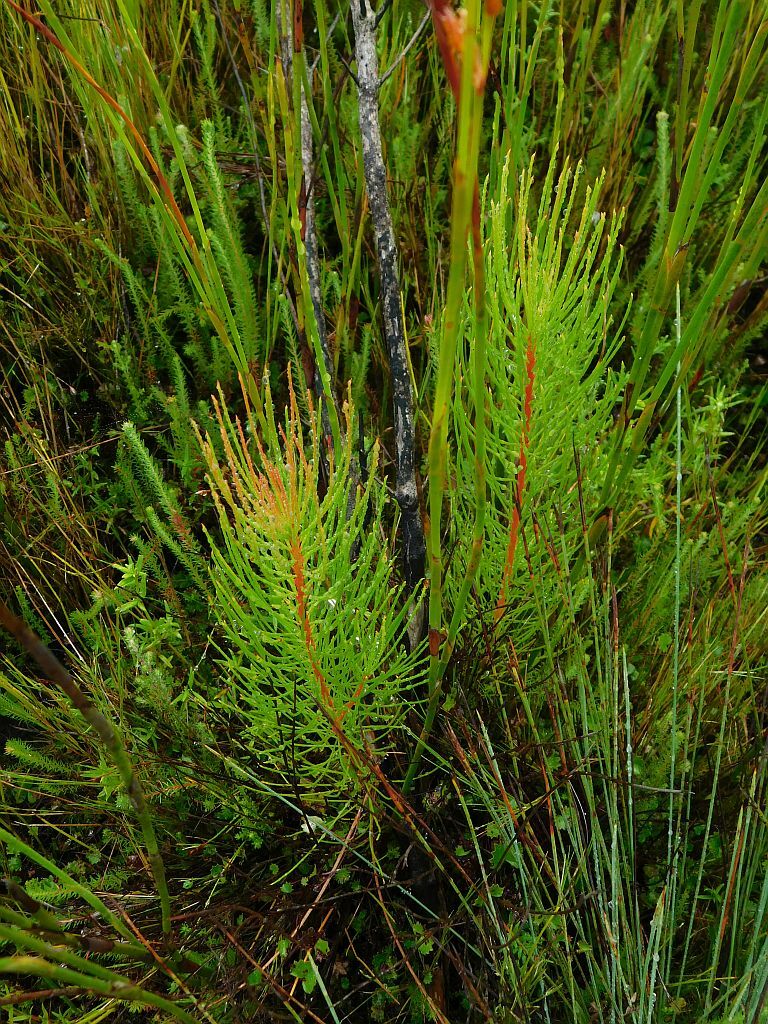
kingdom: Plantae
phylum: Tracheophyta
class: Magnoliopsida
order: Proteales
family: Proteaceae
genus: Spatalla
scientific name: Spatalla propinqua
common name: Lax spoon
